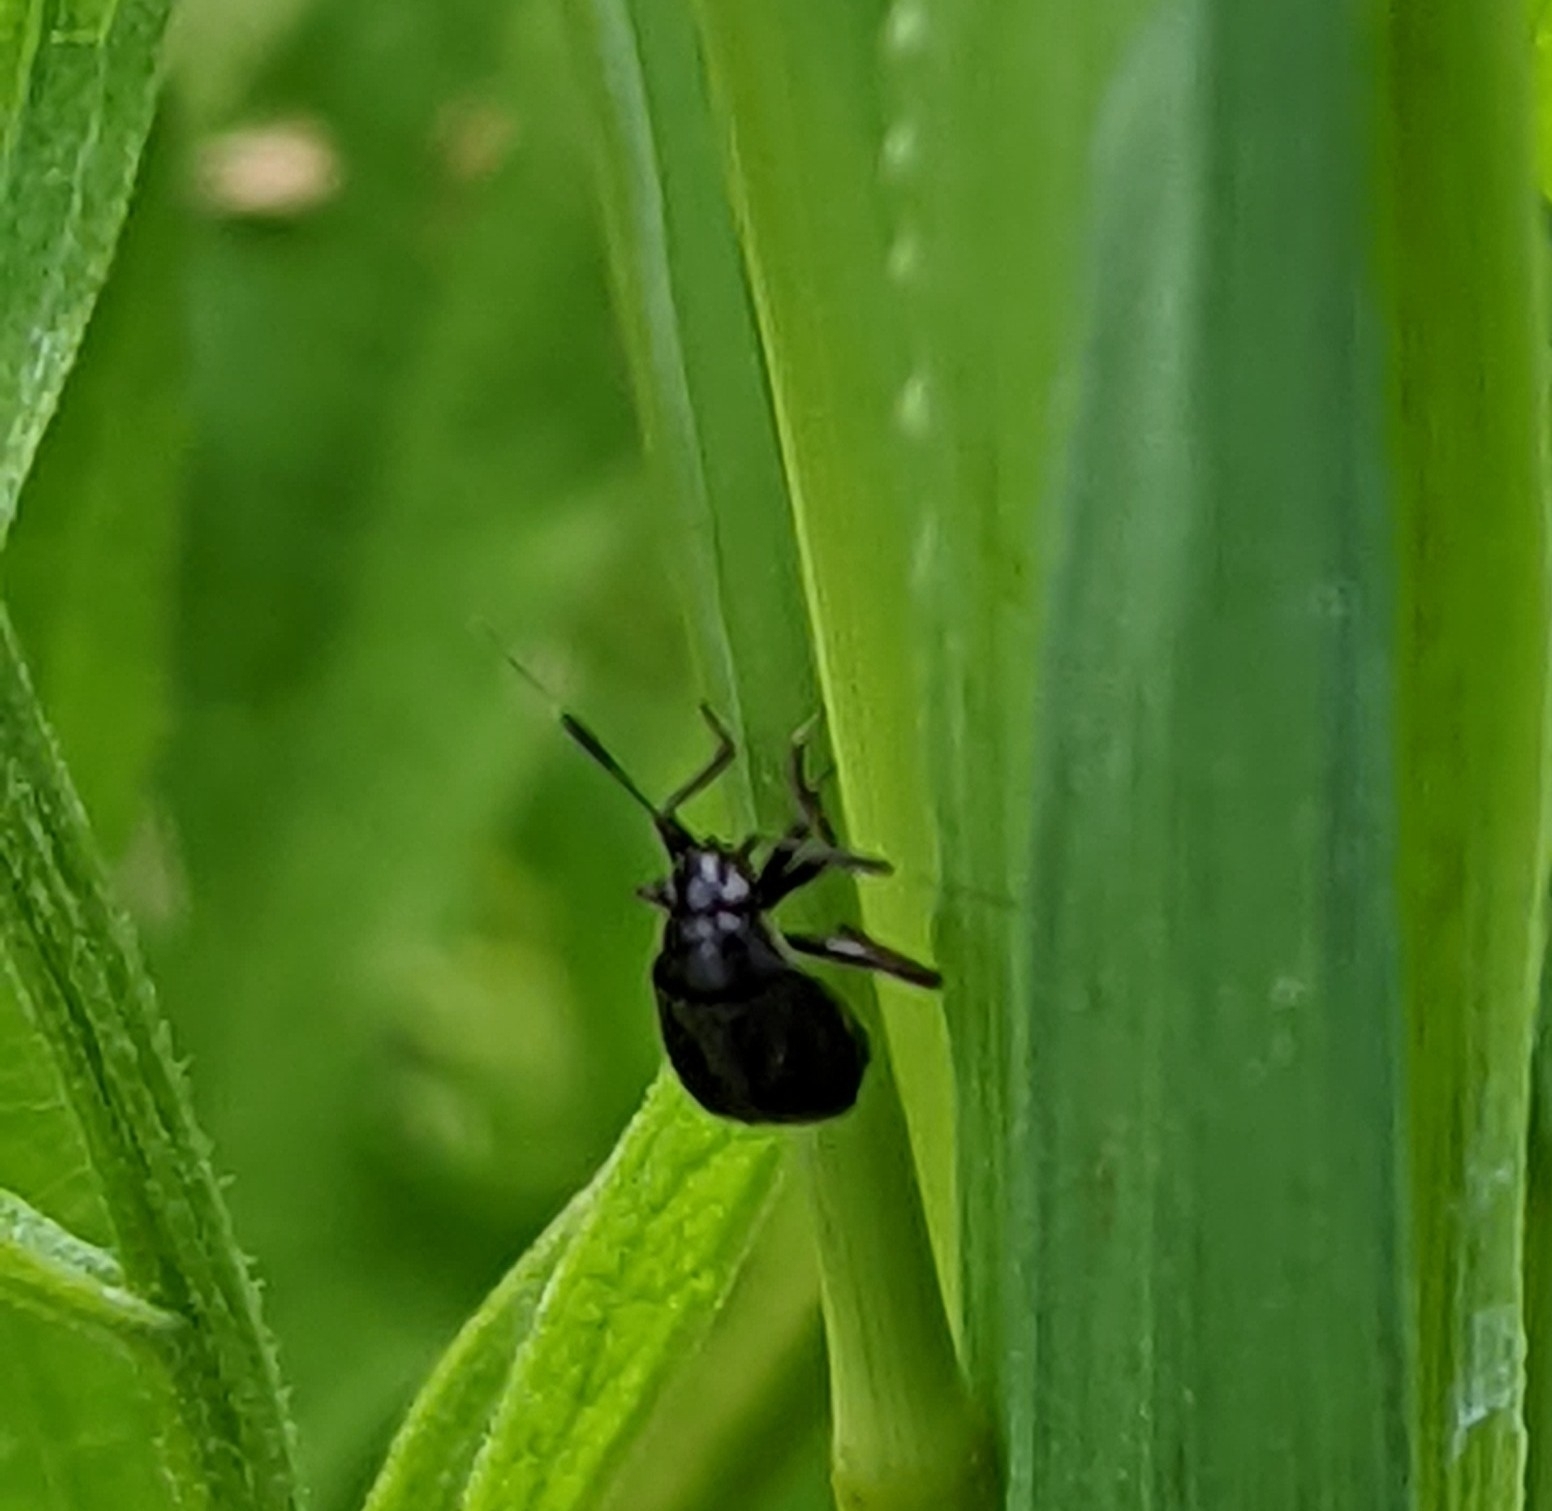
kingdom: Animalia
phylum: Arthropoda
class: Insecta
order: Hemiptera
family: Miridae
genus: Capsus
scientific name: Capsus ater
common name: Black plant bug
